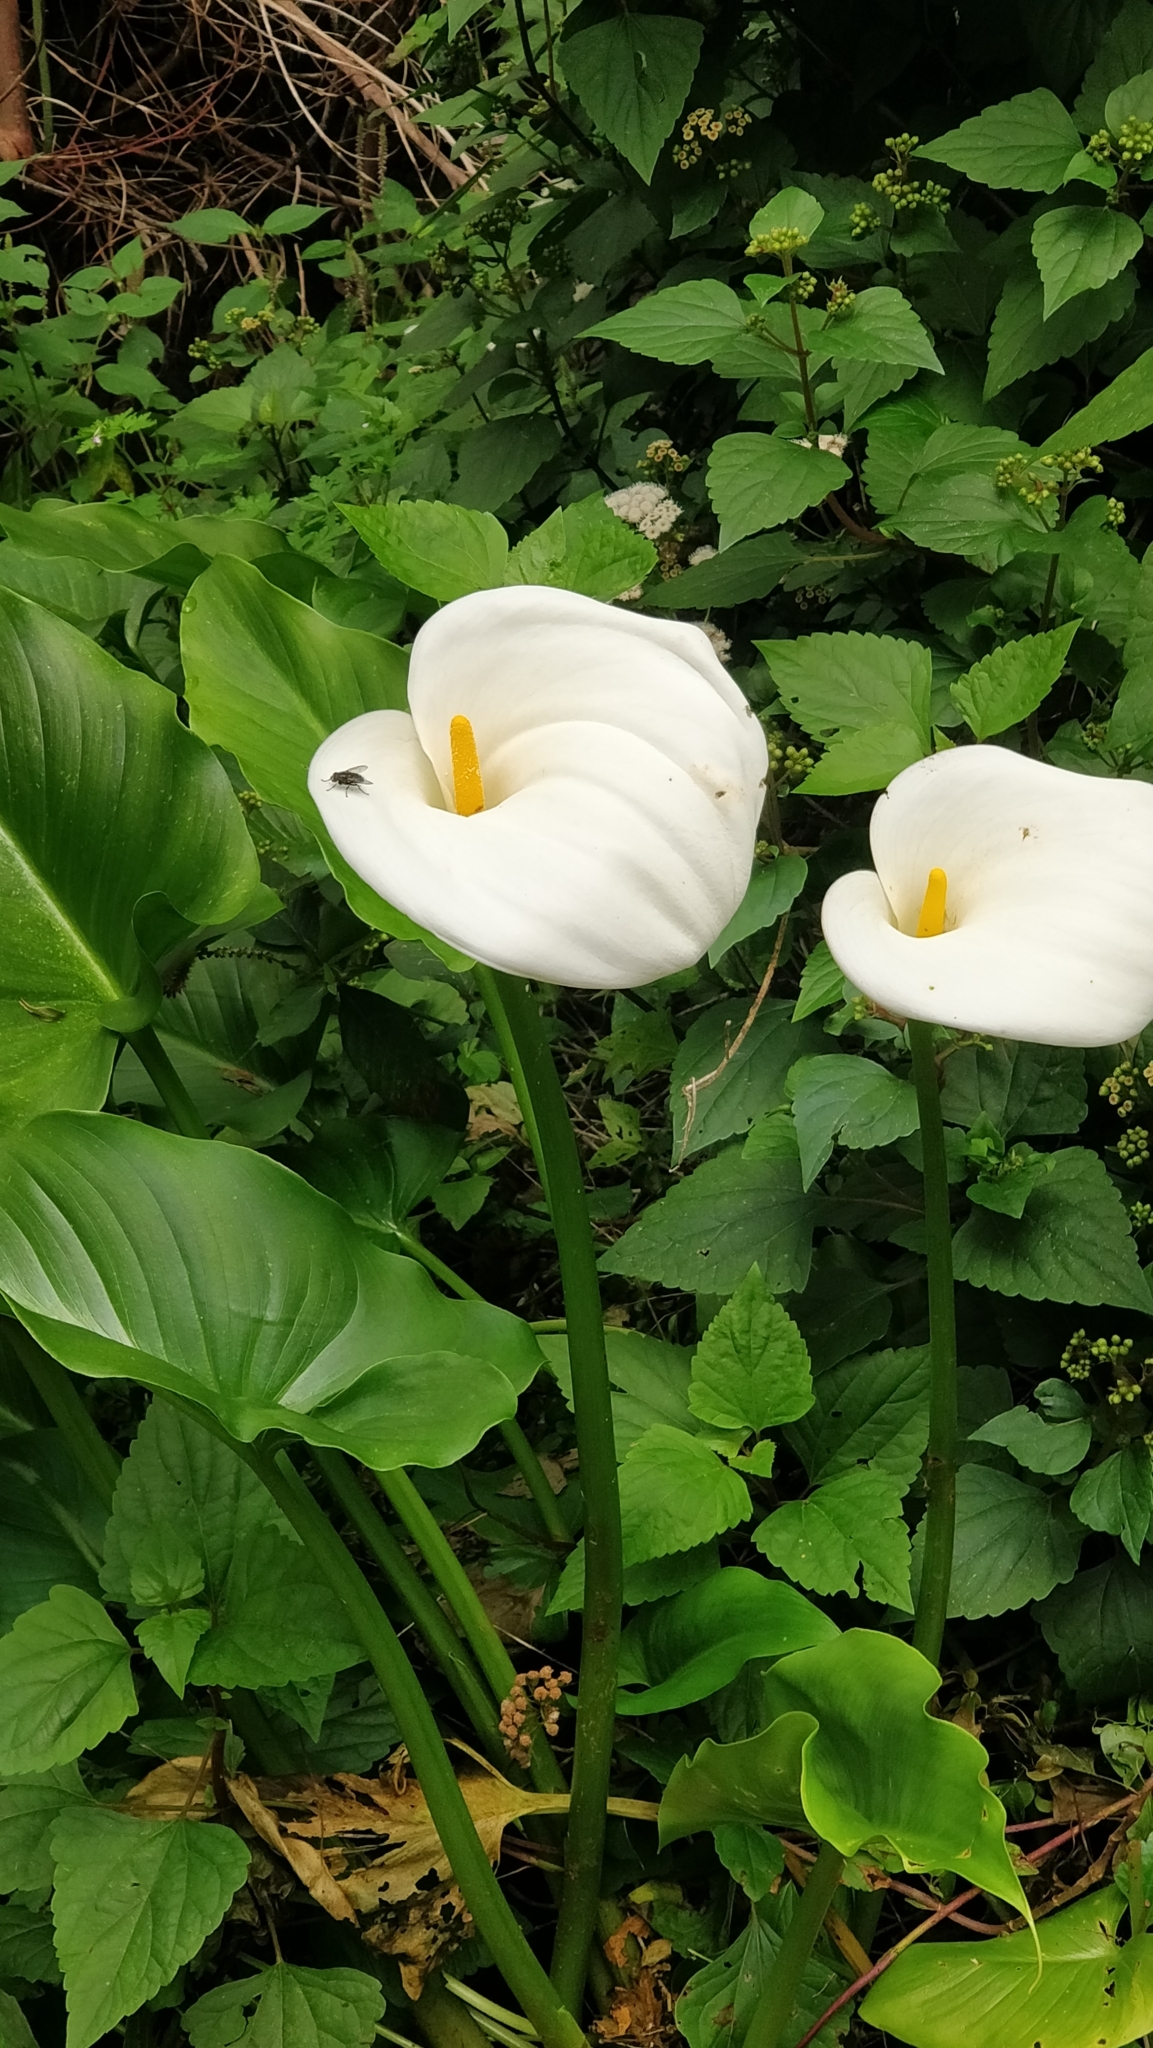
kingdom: Plantae
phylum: Tracheophyta
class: Liliopsida
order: Alismatales
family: Araceae
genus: Zantedeschia
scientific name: Zantedeschia aethiopica
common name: Altar-lily
